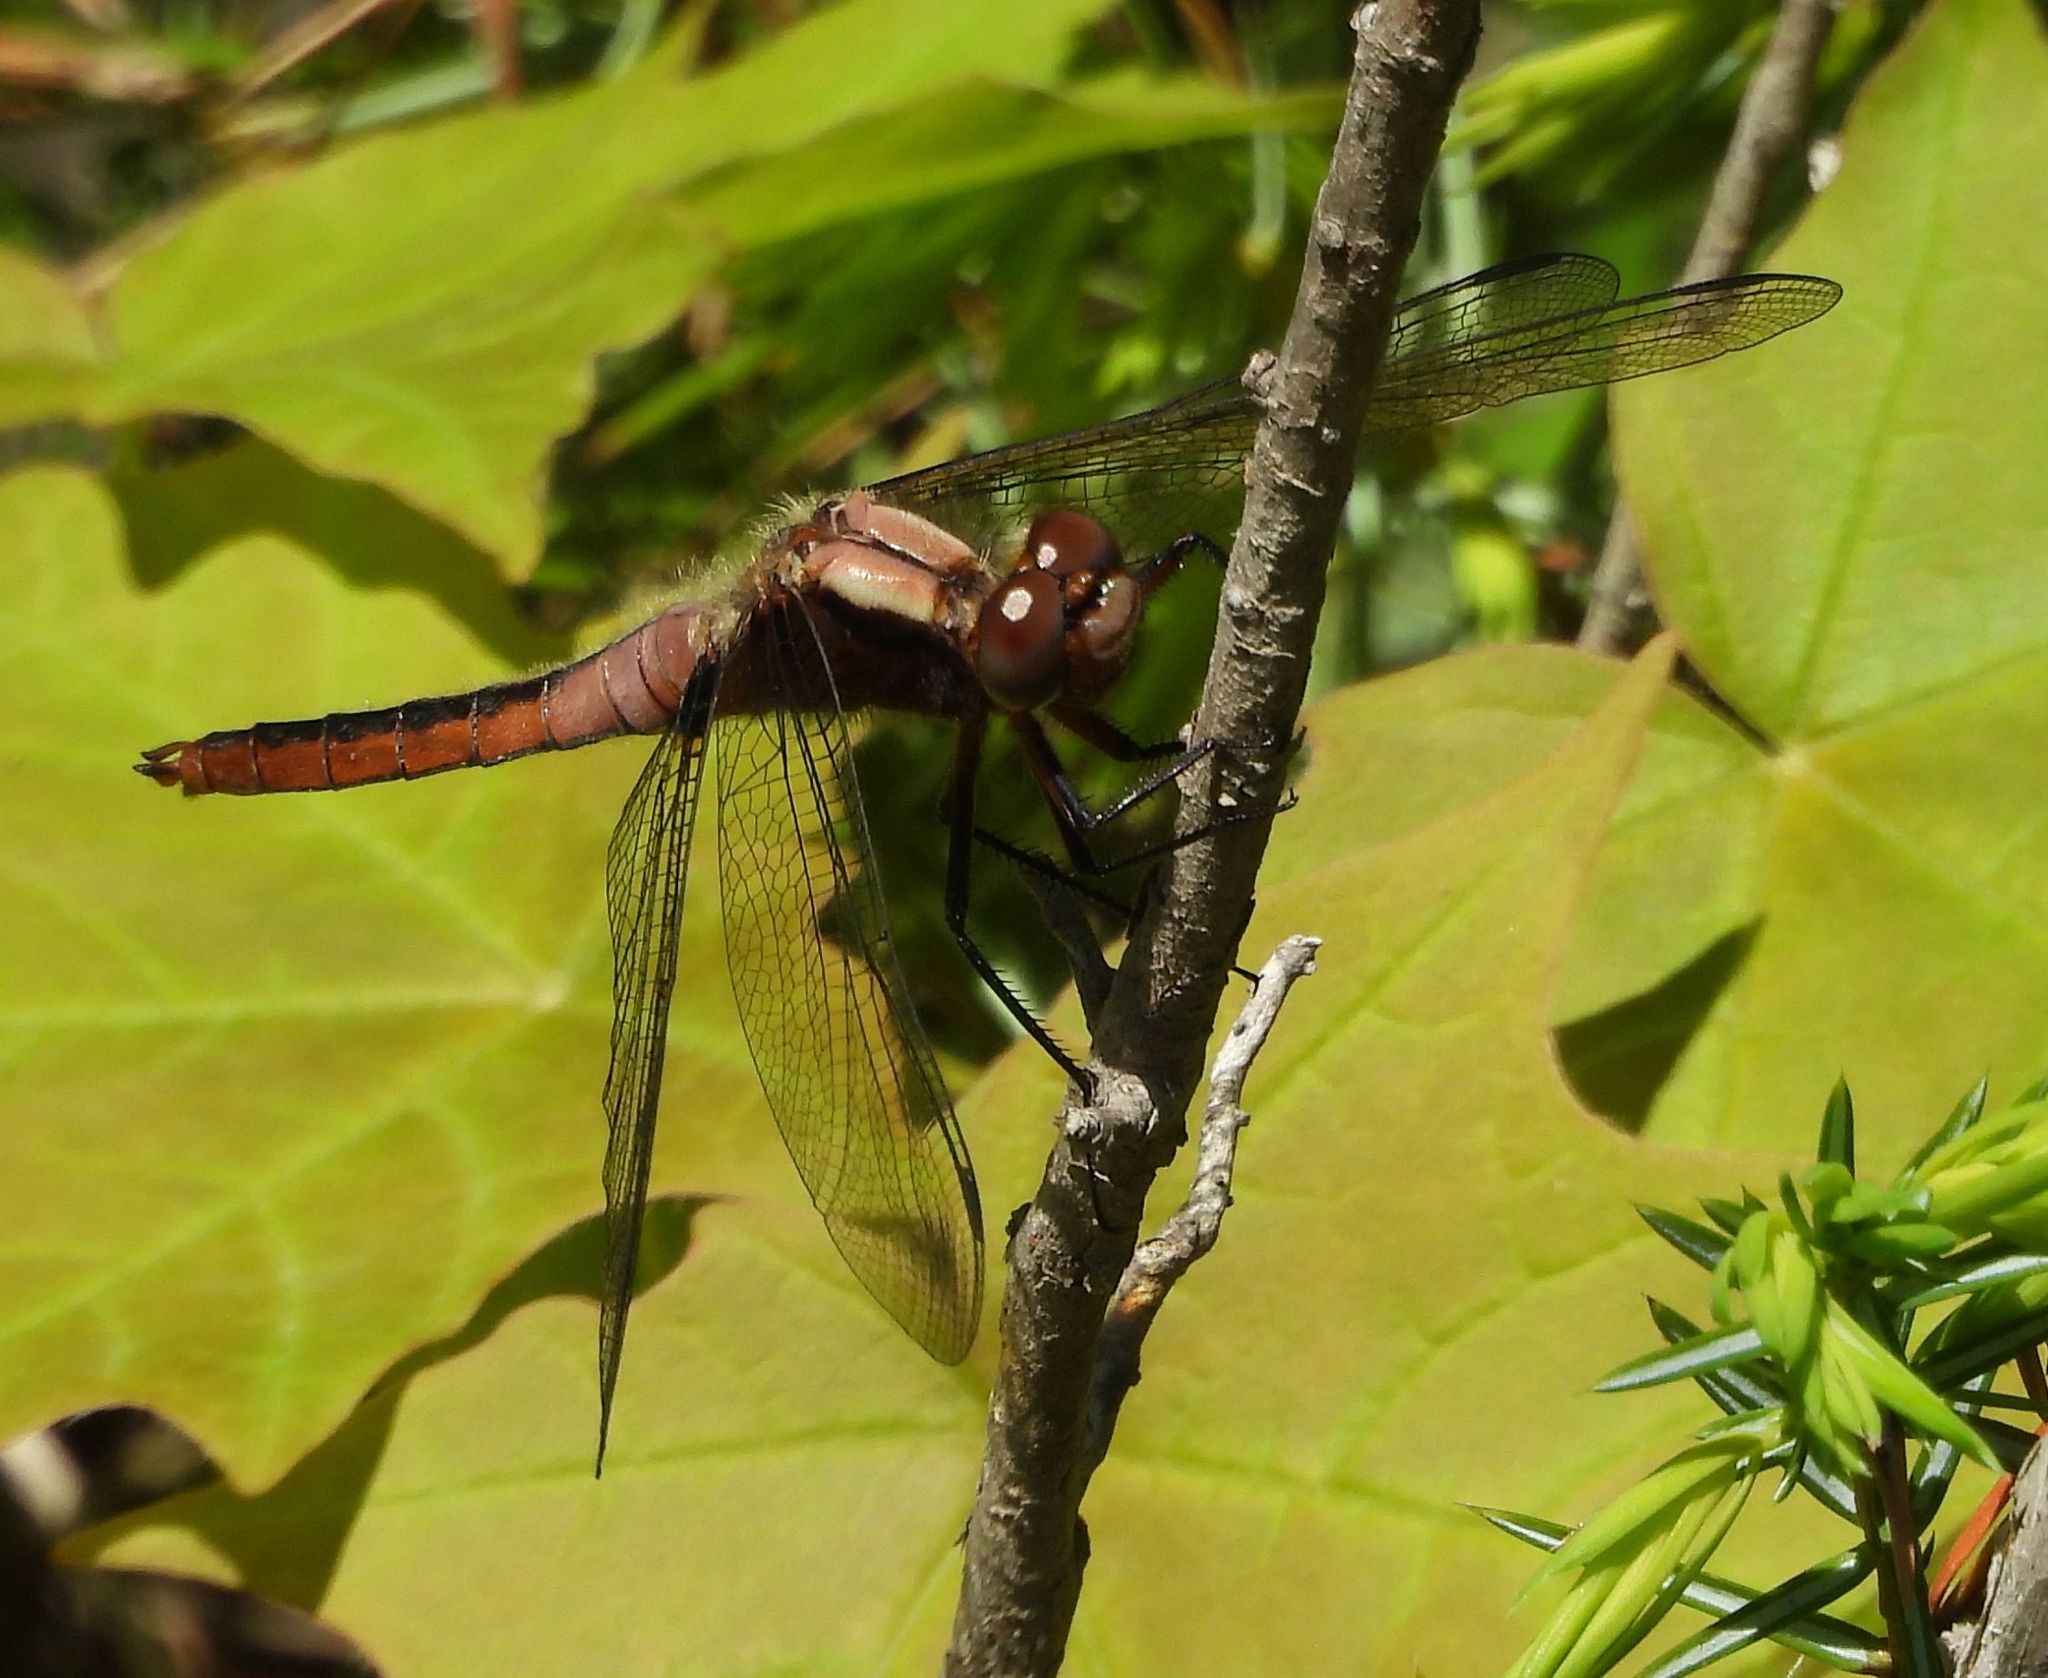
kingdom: Animalia
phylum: Arthropoda
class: Insecta
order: Odonata
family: Libellulidae
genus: Ladona
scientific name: Ladona julia
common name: Chalk-fronted corporal
